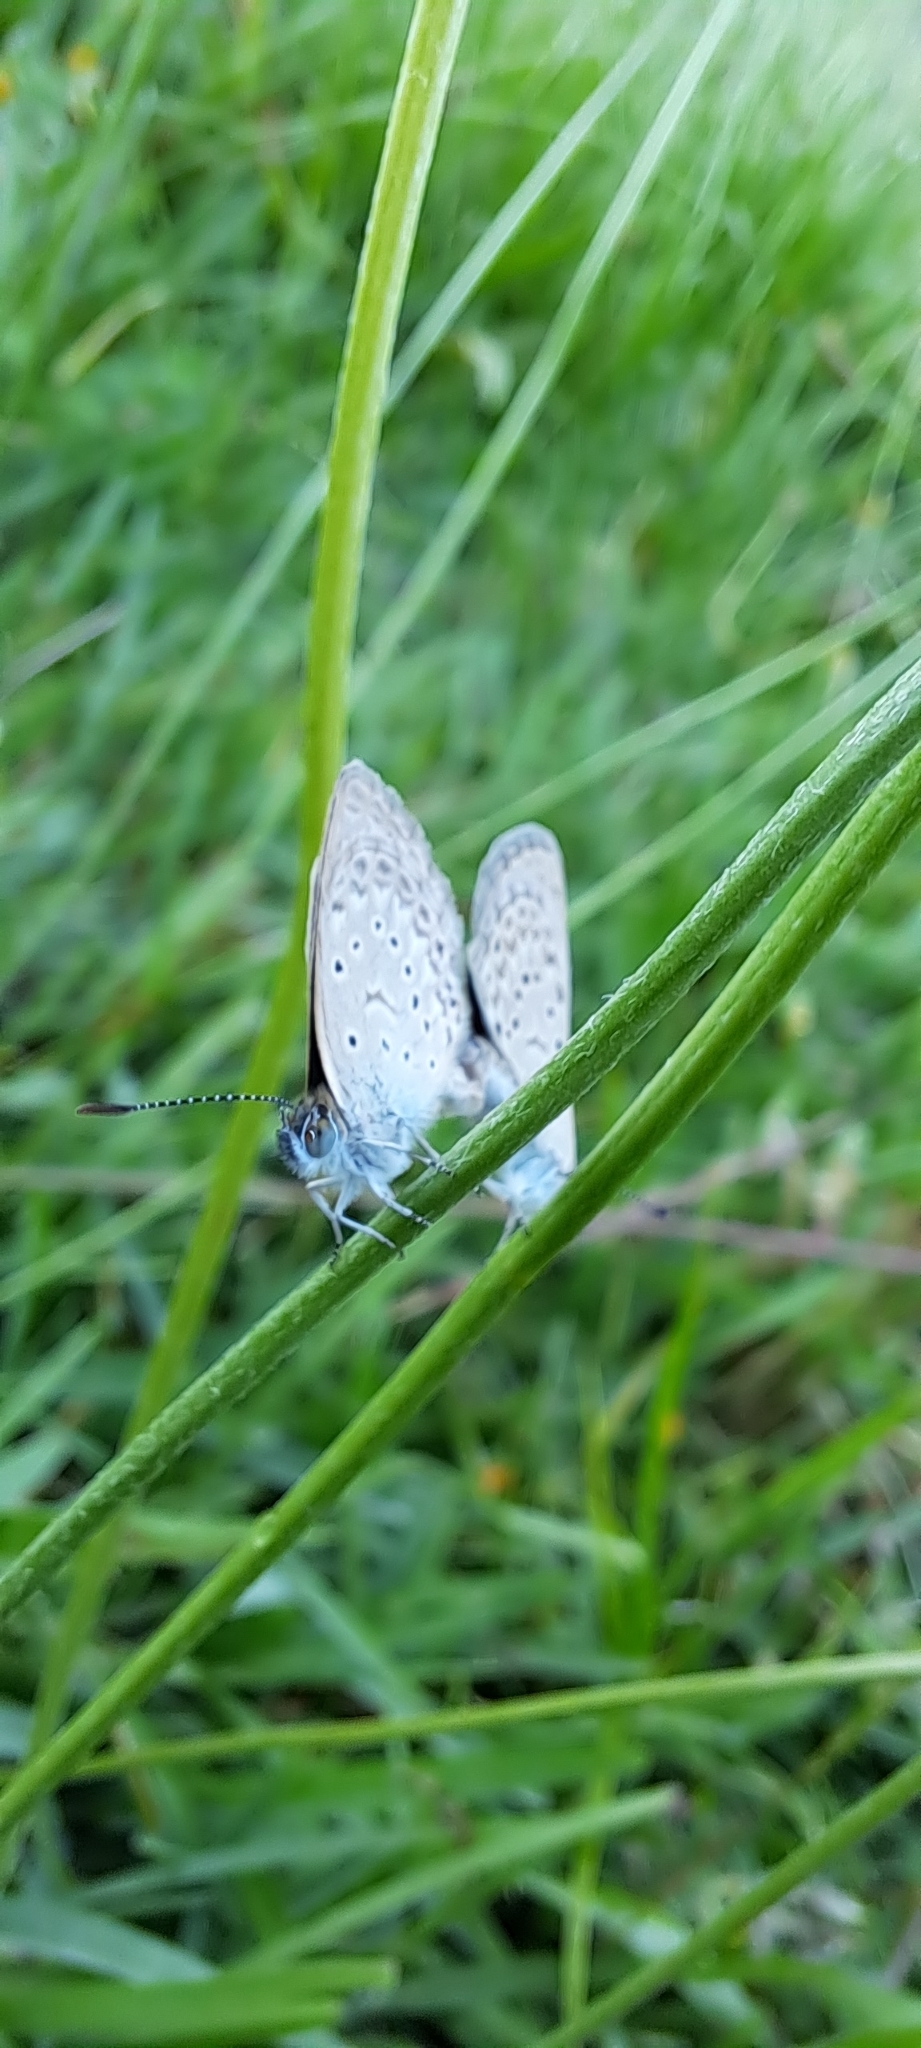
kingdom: Animalia
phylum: Arthropoda
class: Insecta
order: Lepidoptera
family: Lycaenidae
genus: Zizeeria
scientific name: Zizeeria knysna
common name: African grass blue
